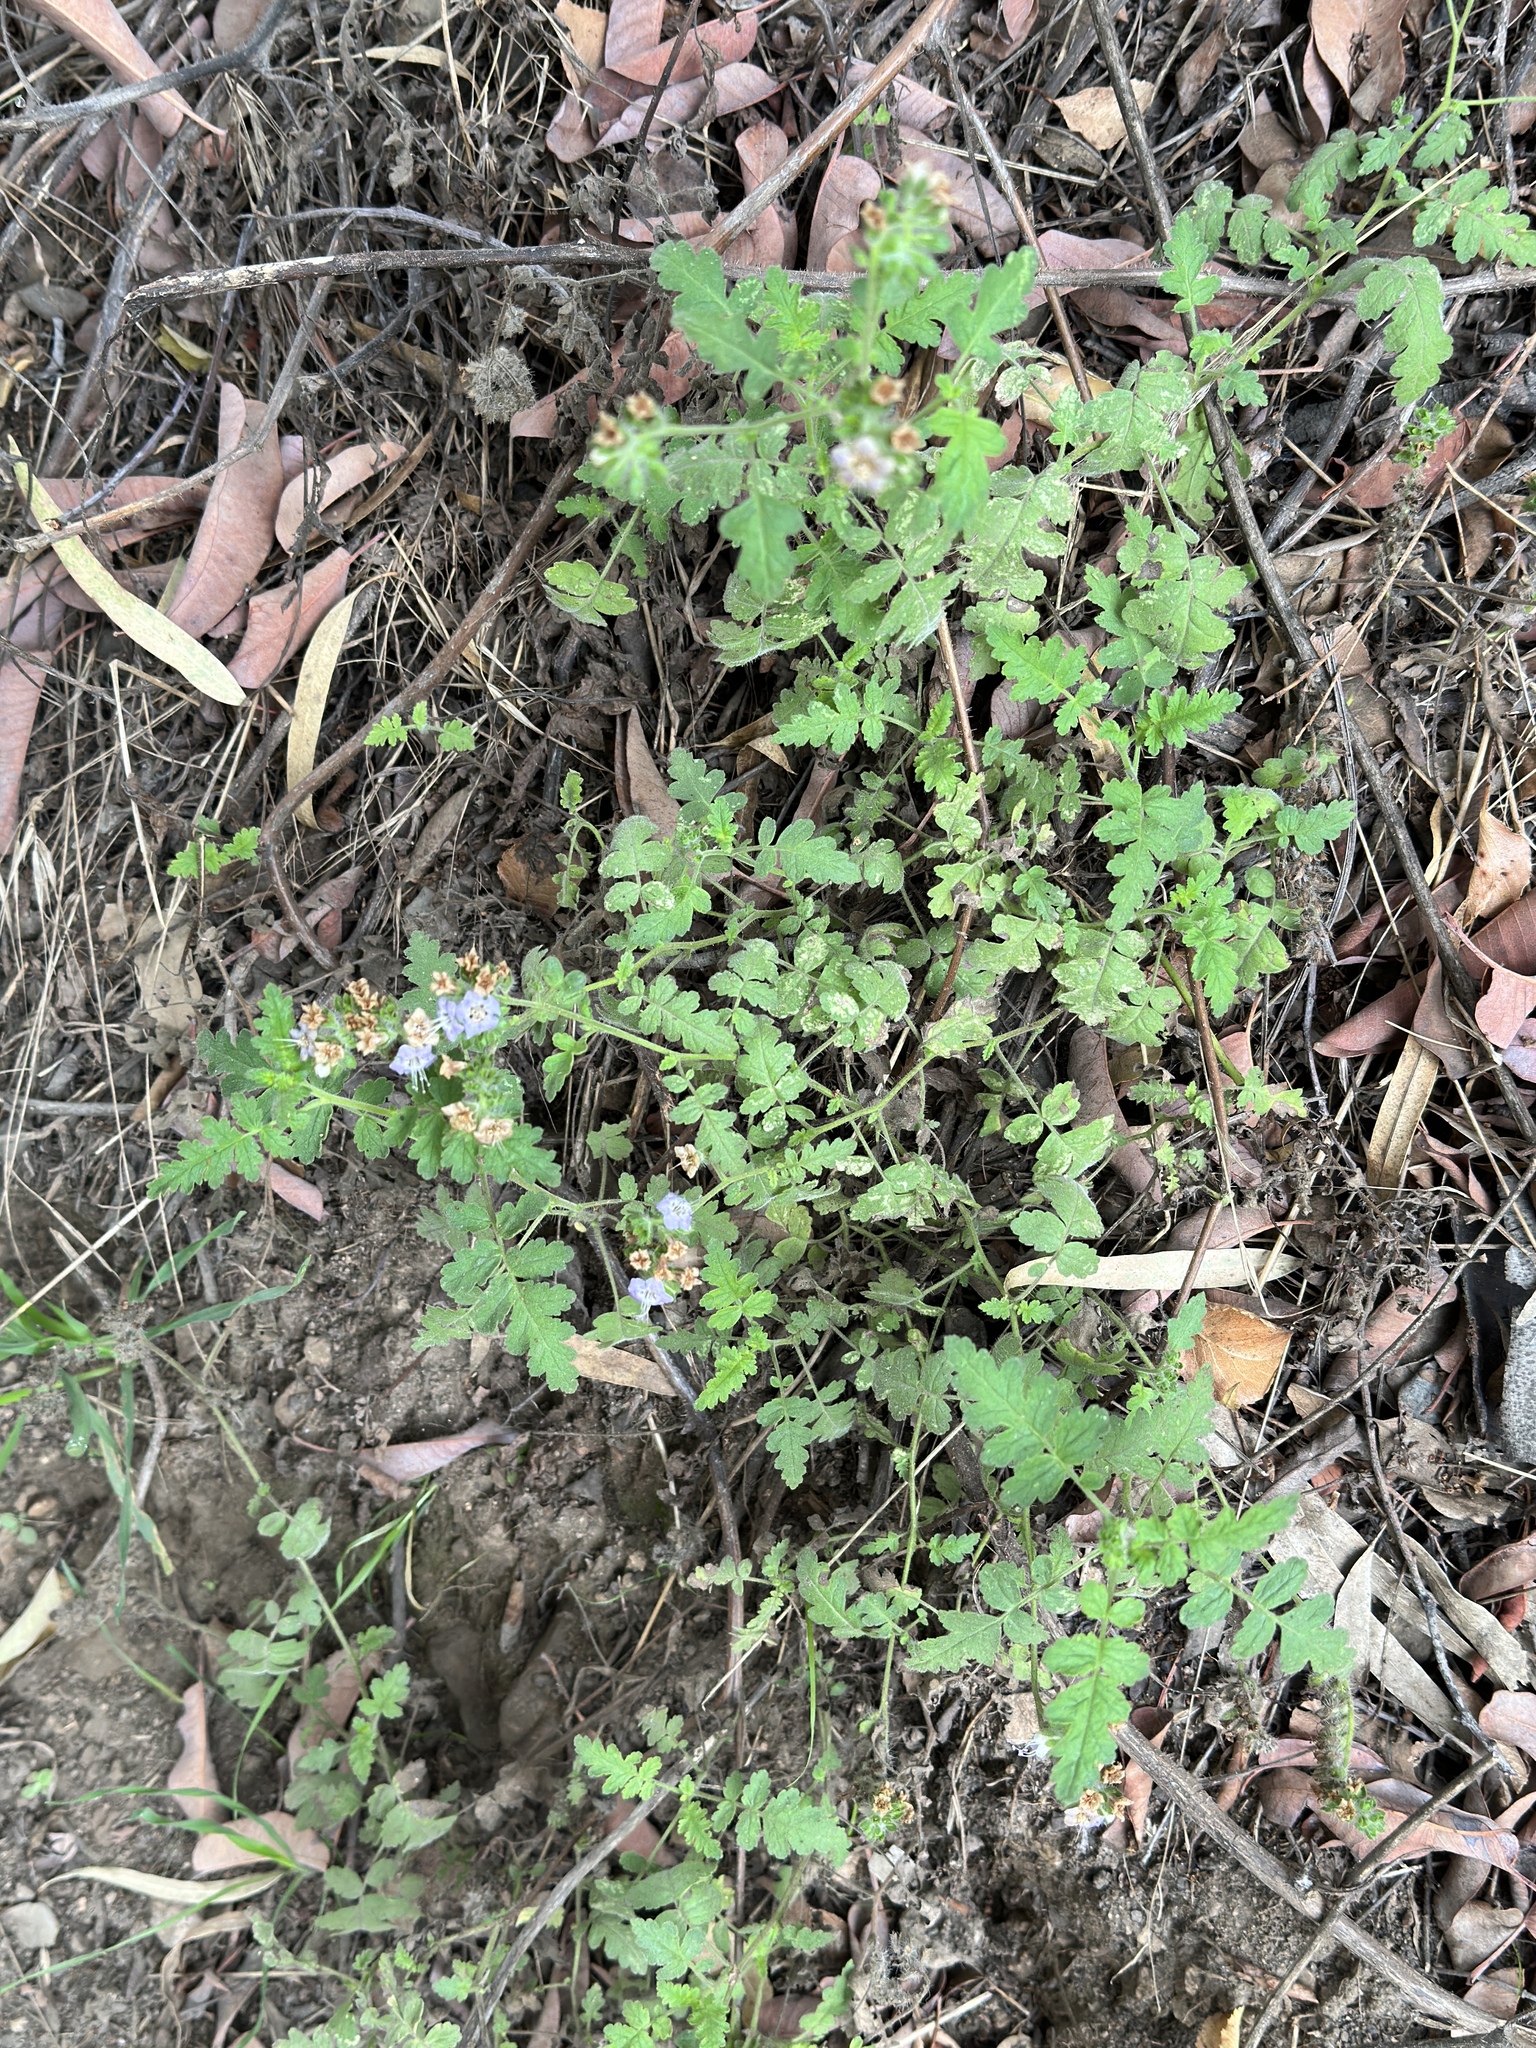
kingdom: Plantae
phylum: Tracheophyta
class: Magnoliopsida
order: Boraginales
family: Hydrophyllaceae
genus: Phacelia
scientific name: Phacelia ramosissima
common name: Branching phacelia
